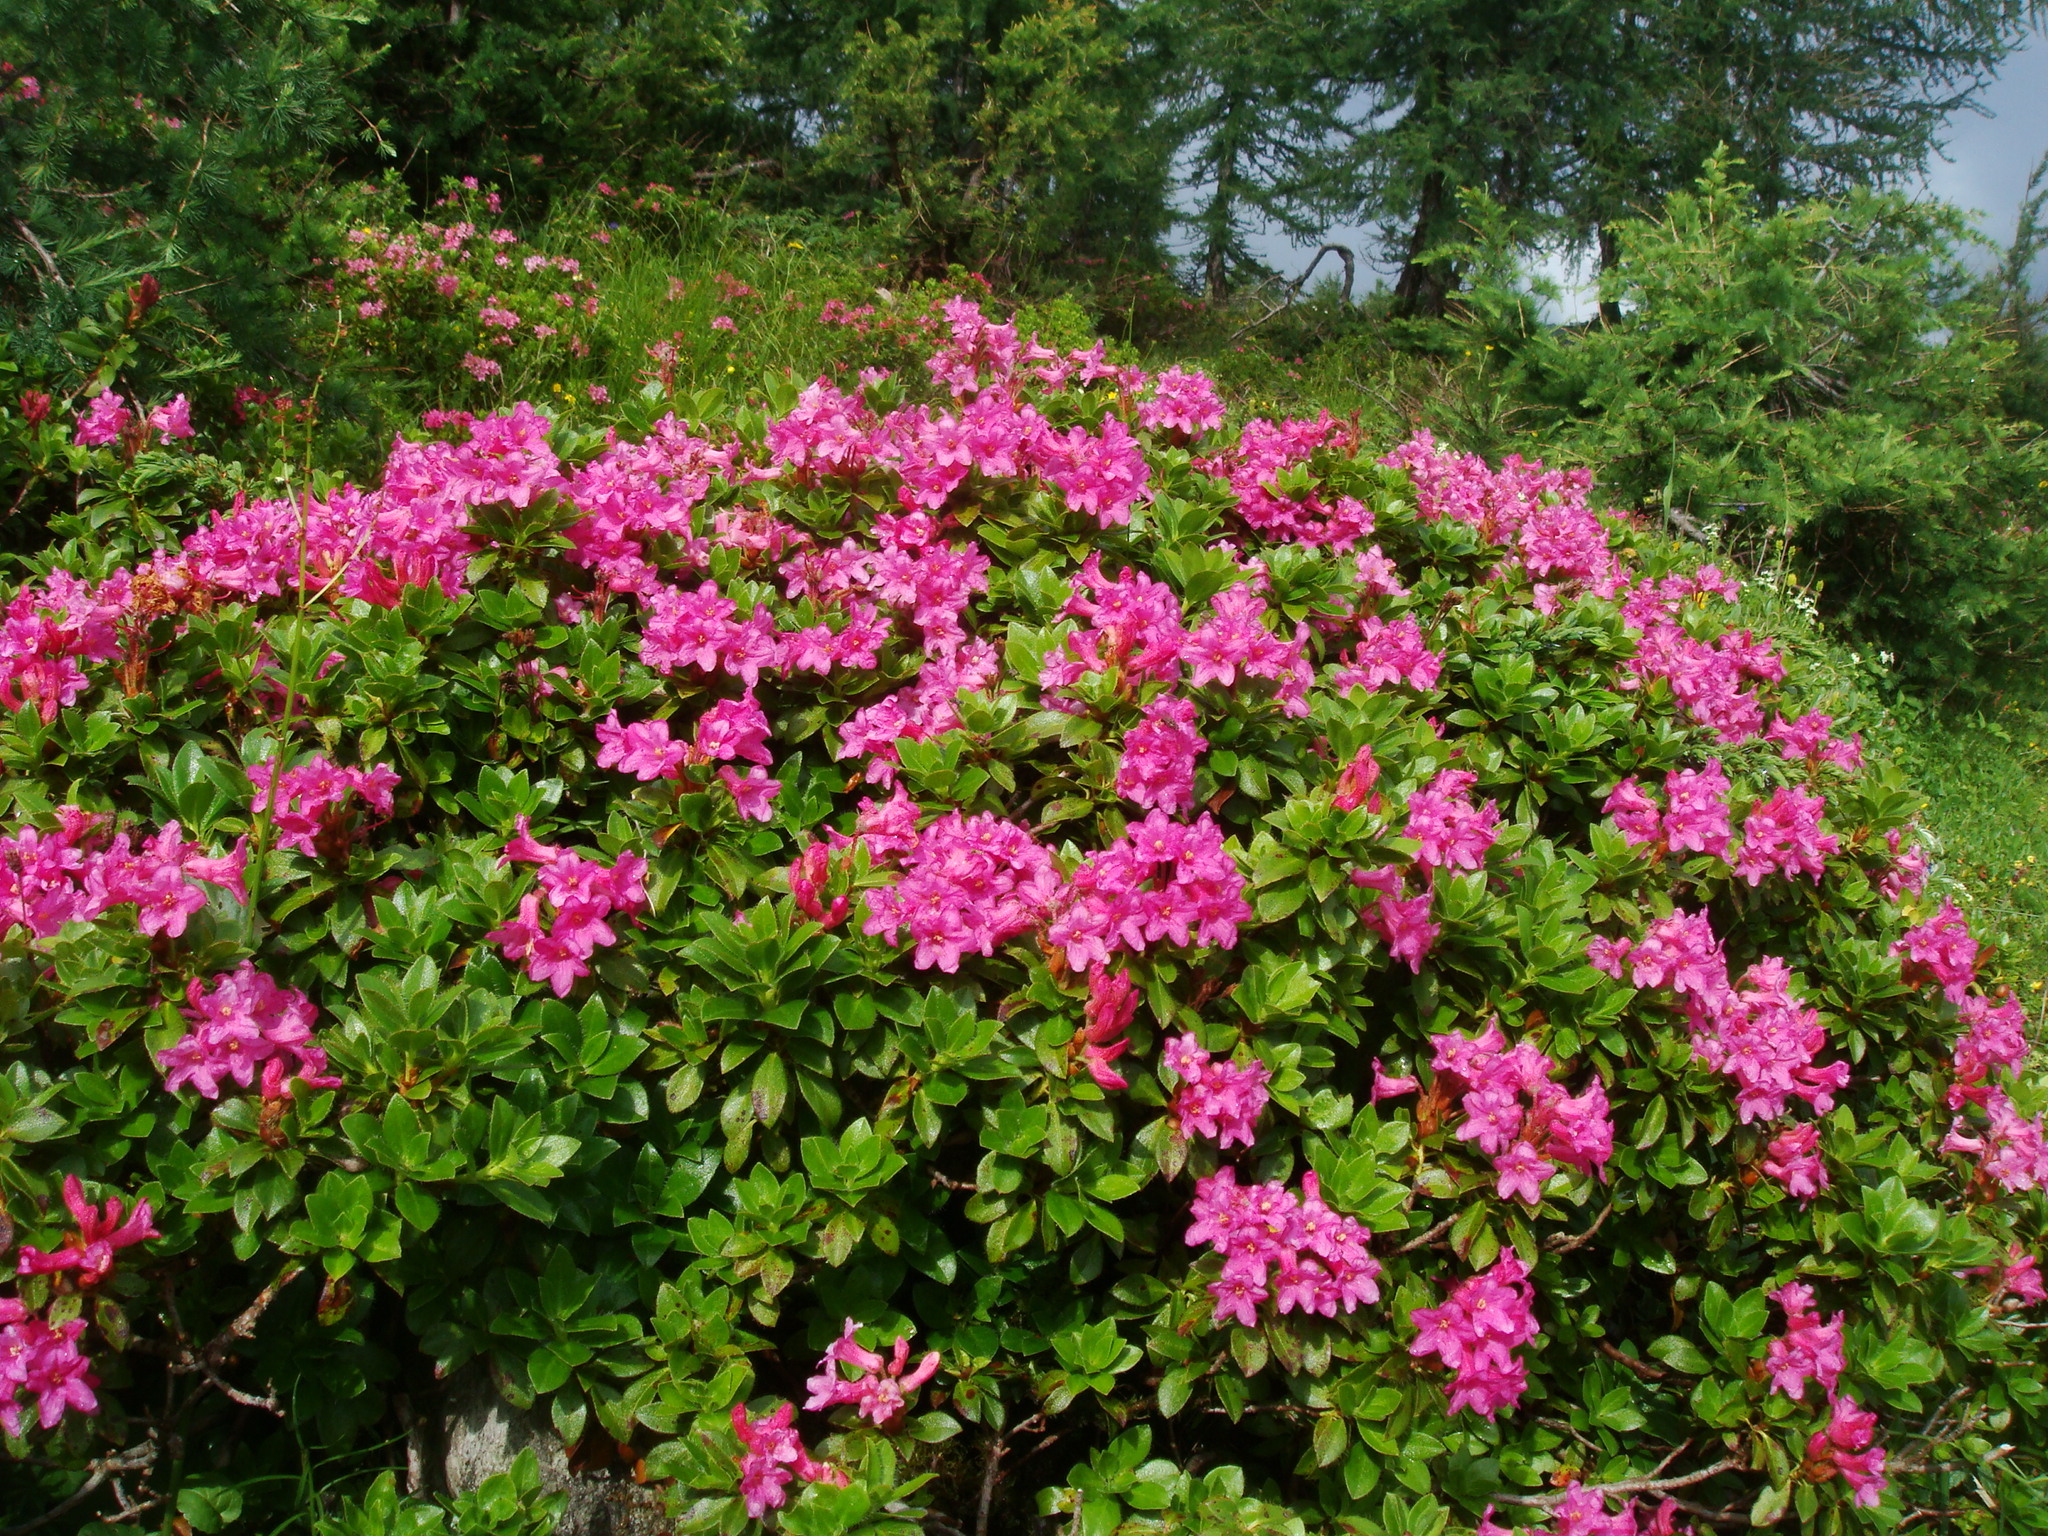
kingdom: Plantae
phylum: Tracheophyta
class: Magnoliopsida
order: Ericales
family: Ericaceae
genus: Rhododendron
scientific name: Rhododendron hirsutum
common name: Hairy alpenrose
